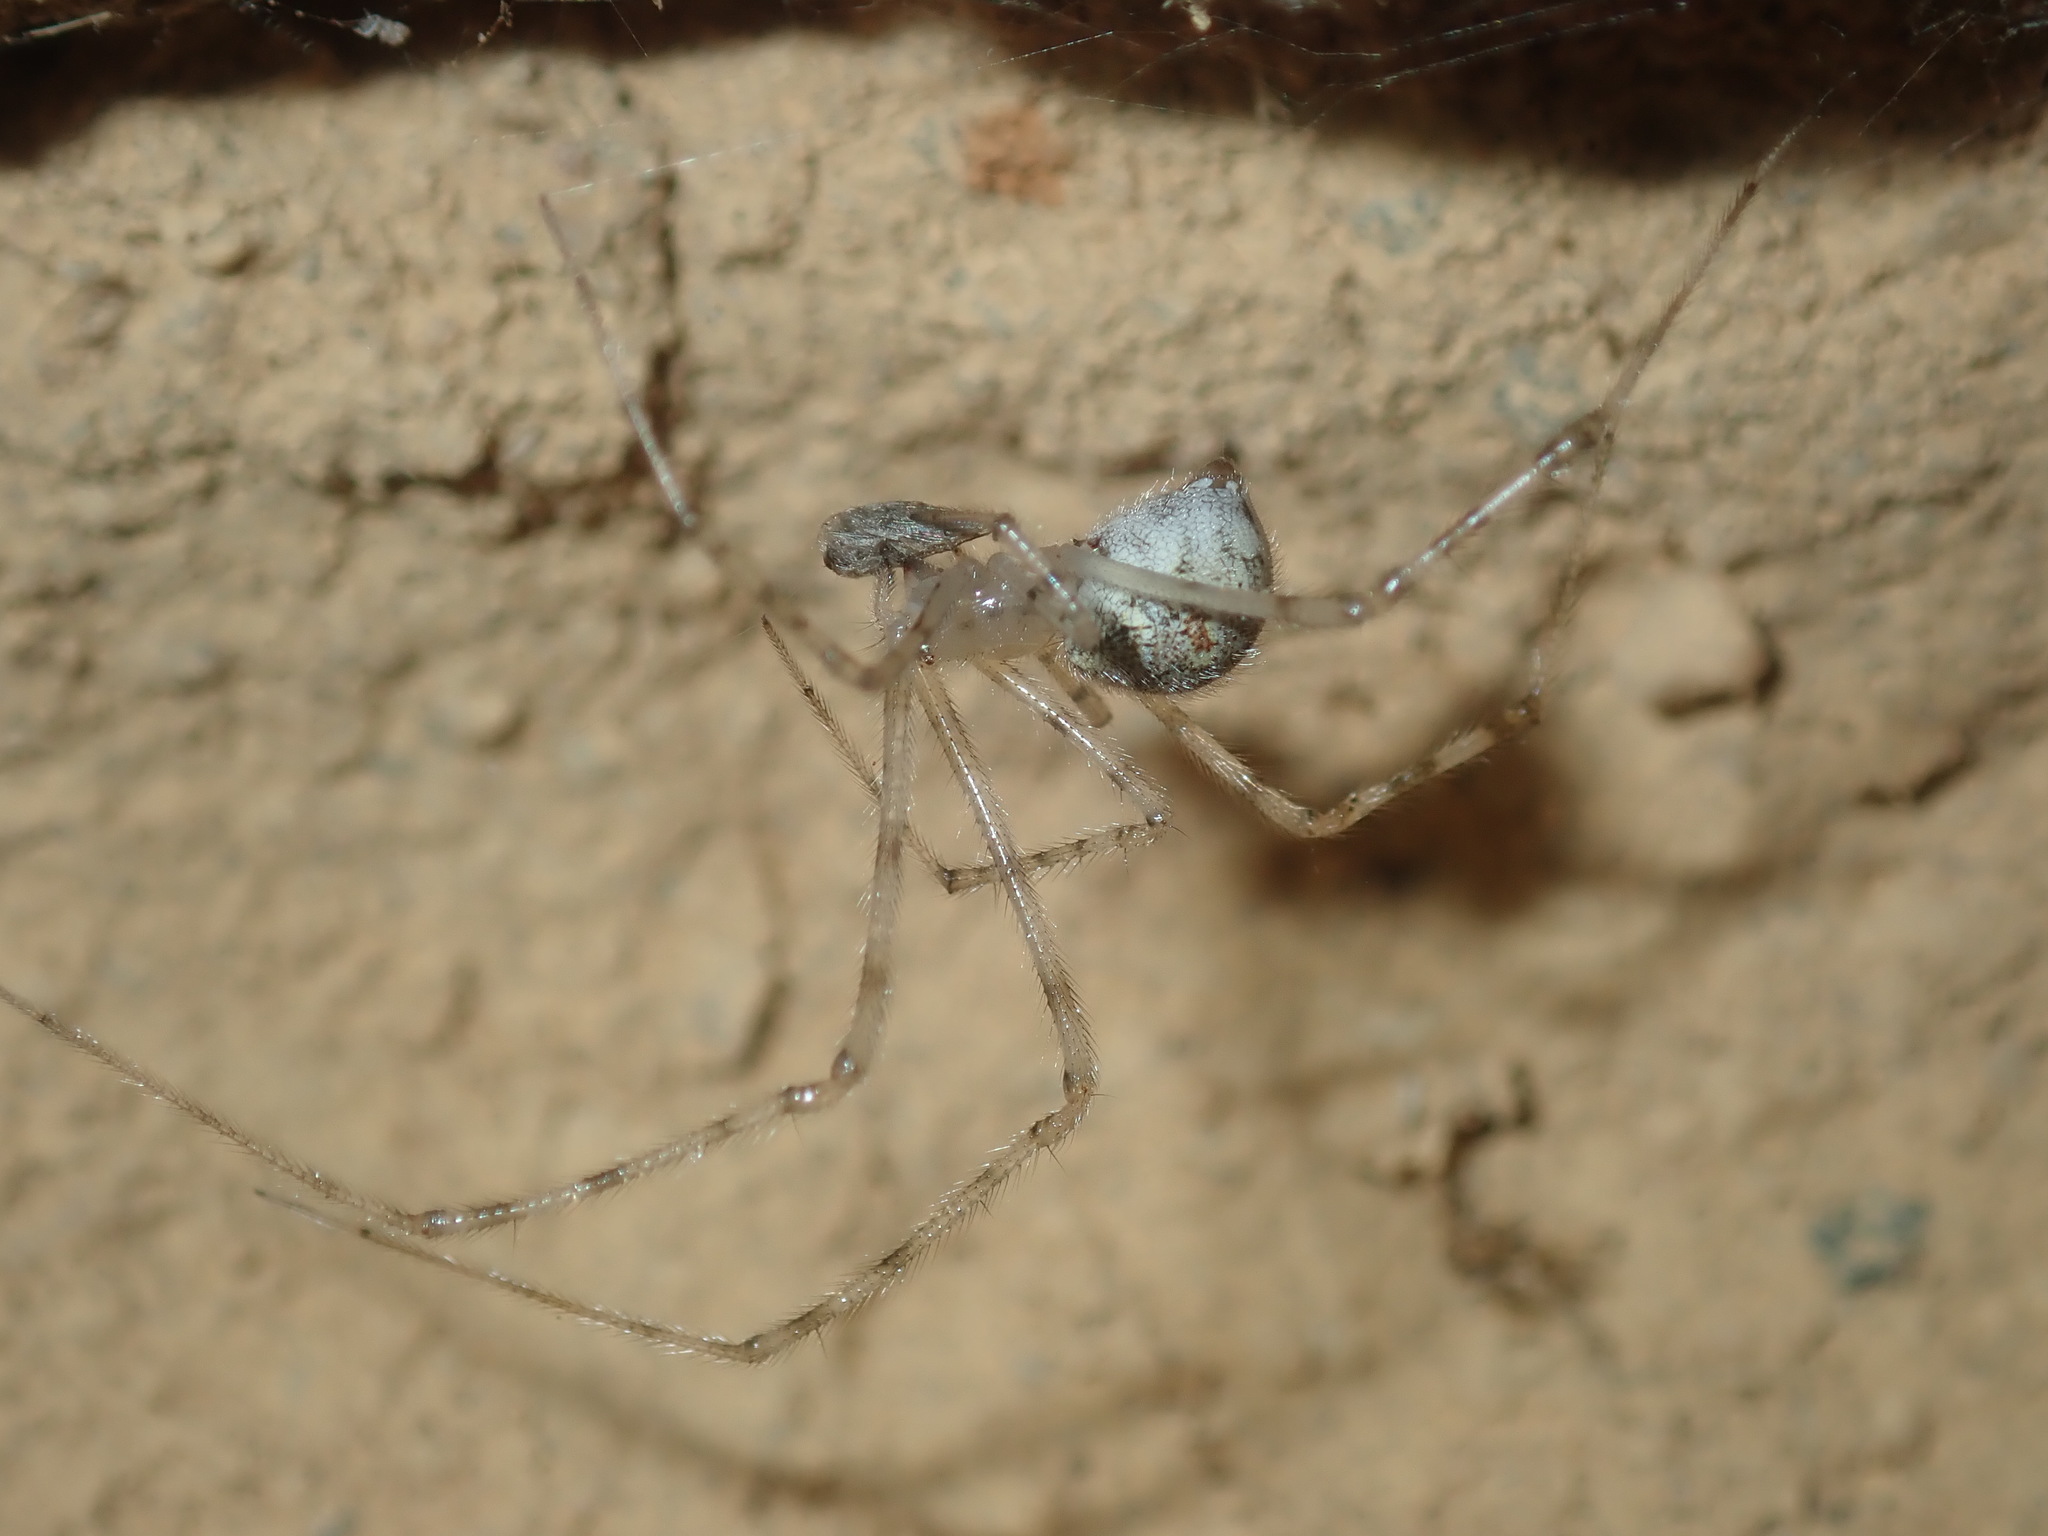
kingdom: Animalia
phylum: Arthropoda
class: Arachnida
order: Araneae
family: Theridiidae
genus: Cryptachaea
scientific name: Cryptachaea gigantipes
